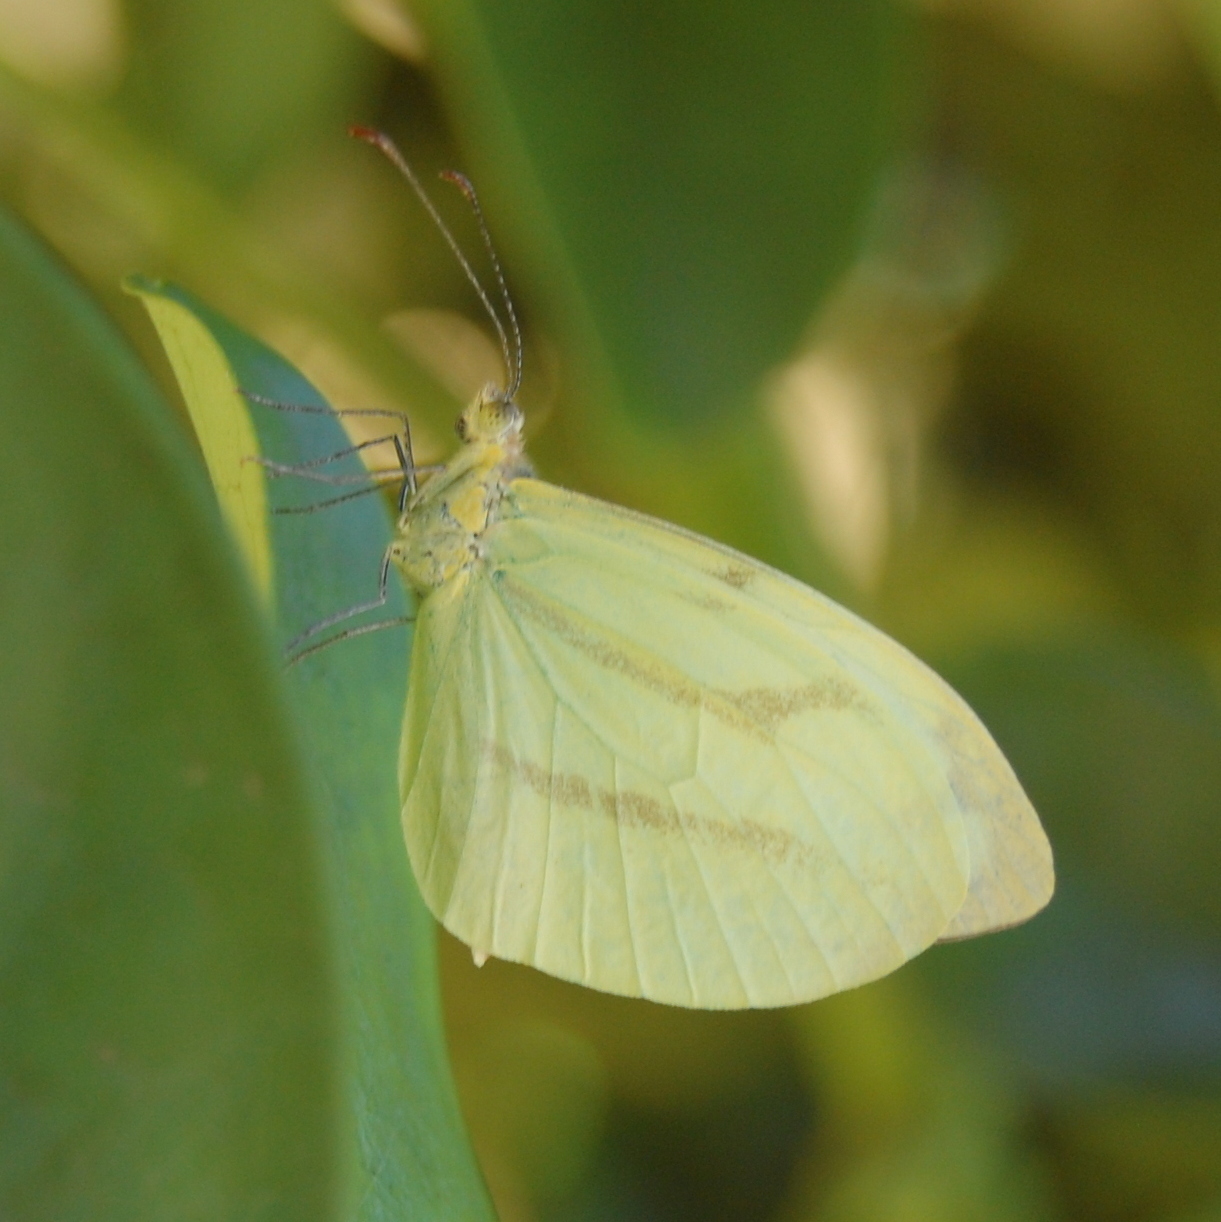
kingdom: Animalia
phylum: Arthropoda
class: Insecta
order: Lepidoptera
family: Pieridae
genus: Enantia
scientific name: Enantia lina
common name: White mimic-white
